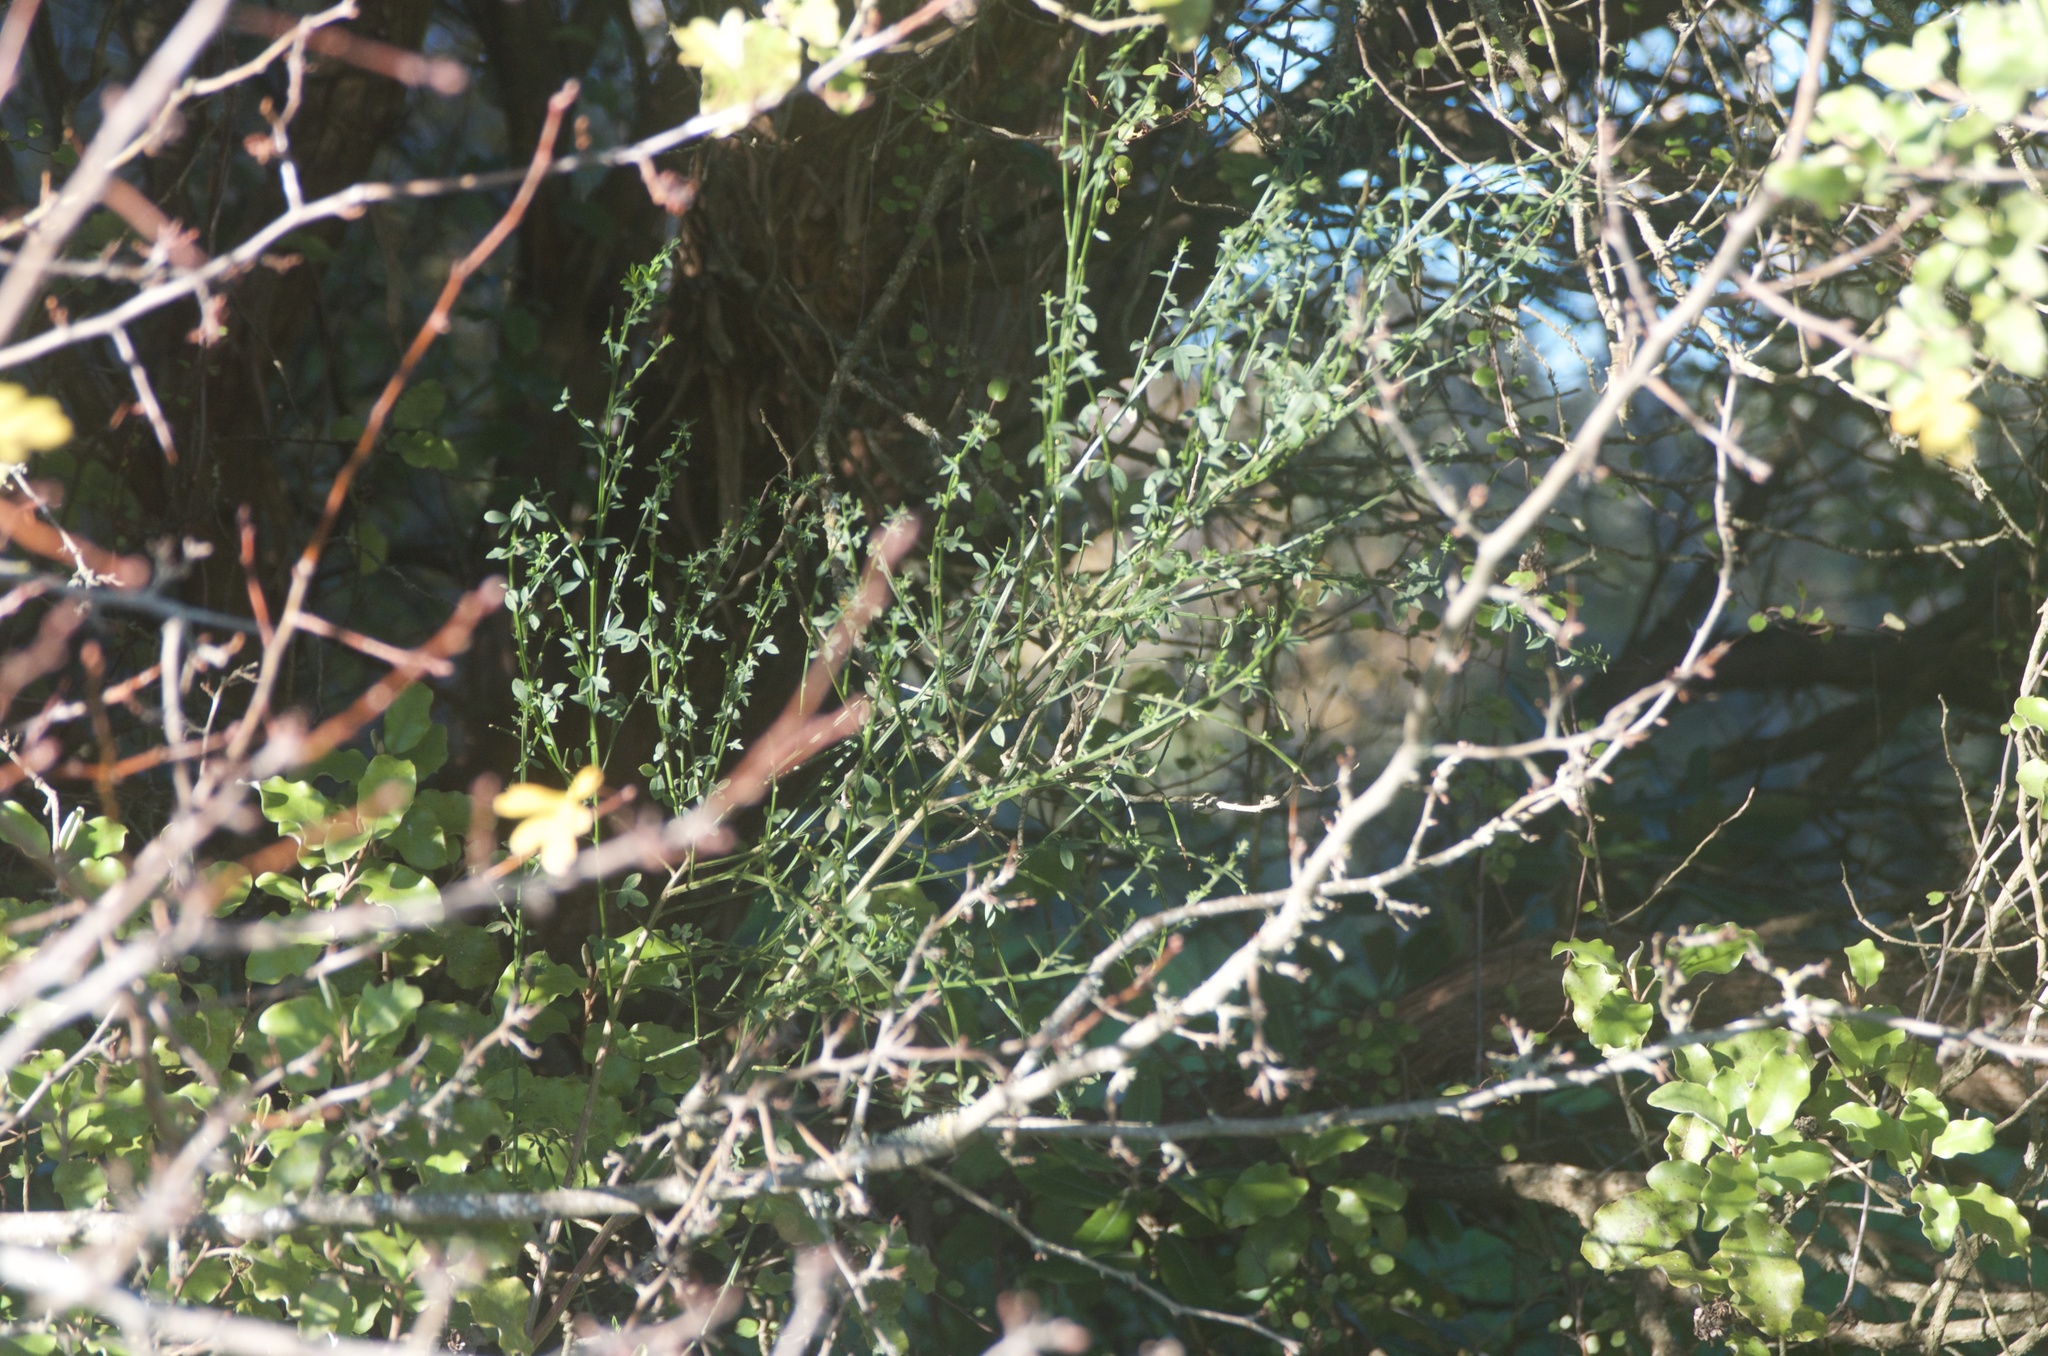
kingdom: Plantae
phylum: Tracheophyta
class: Magnoliopsida
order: Fabales
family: Fabaceae
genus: Cytisus
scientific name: Cytisus scoparius
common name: Scotch broom
